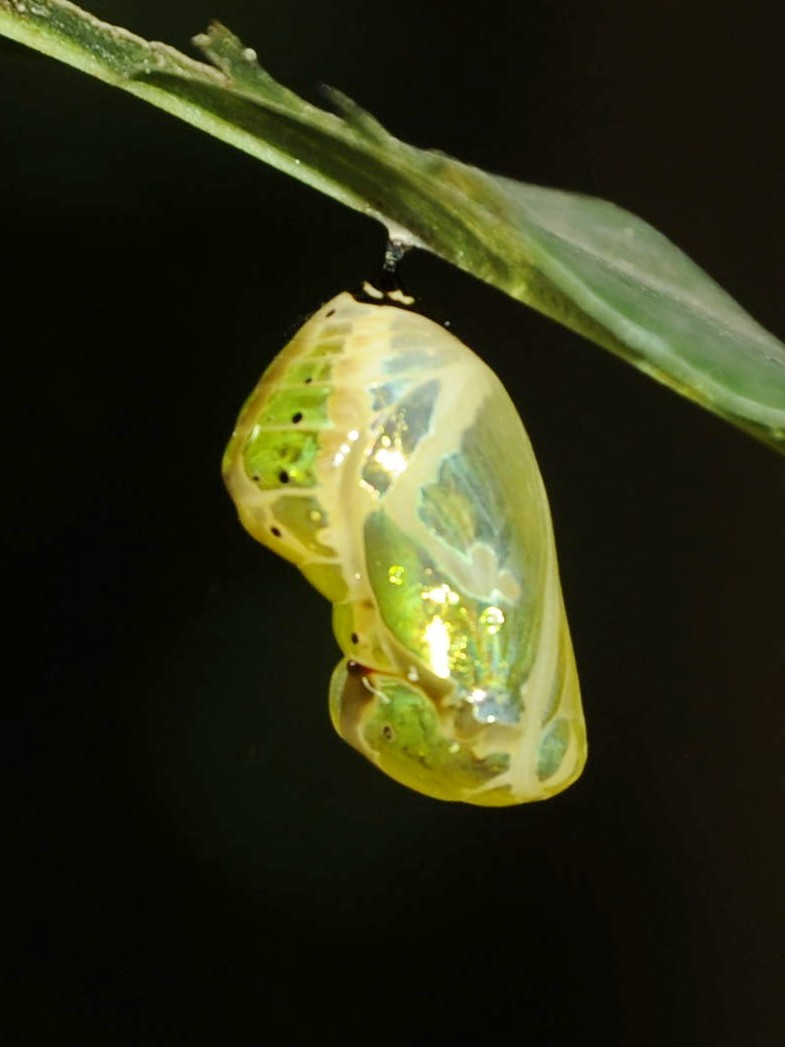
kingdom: Animalia
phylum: Arthropoda
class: Insecta
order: Lepidoptera
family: Nymphalidae
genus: Euploea
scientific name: Euploea core
